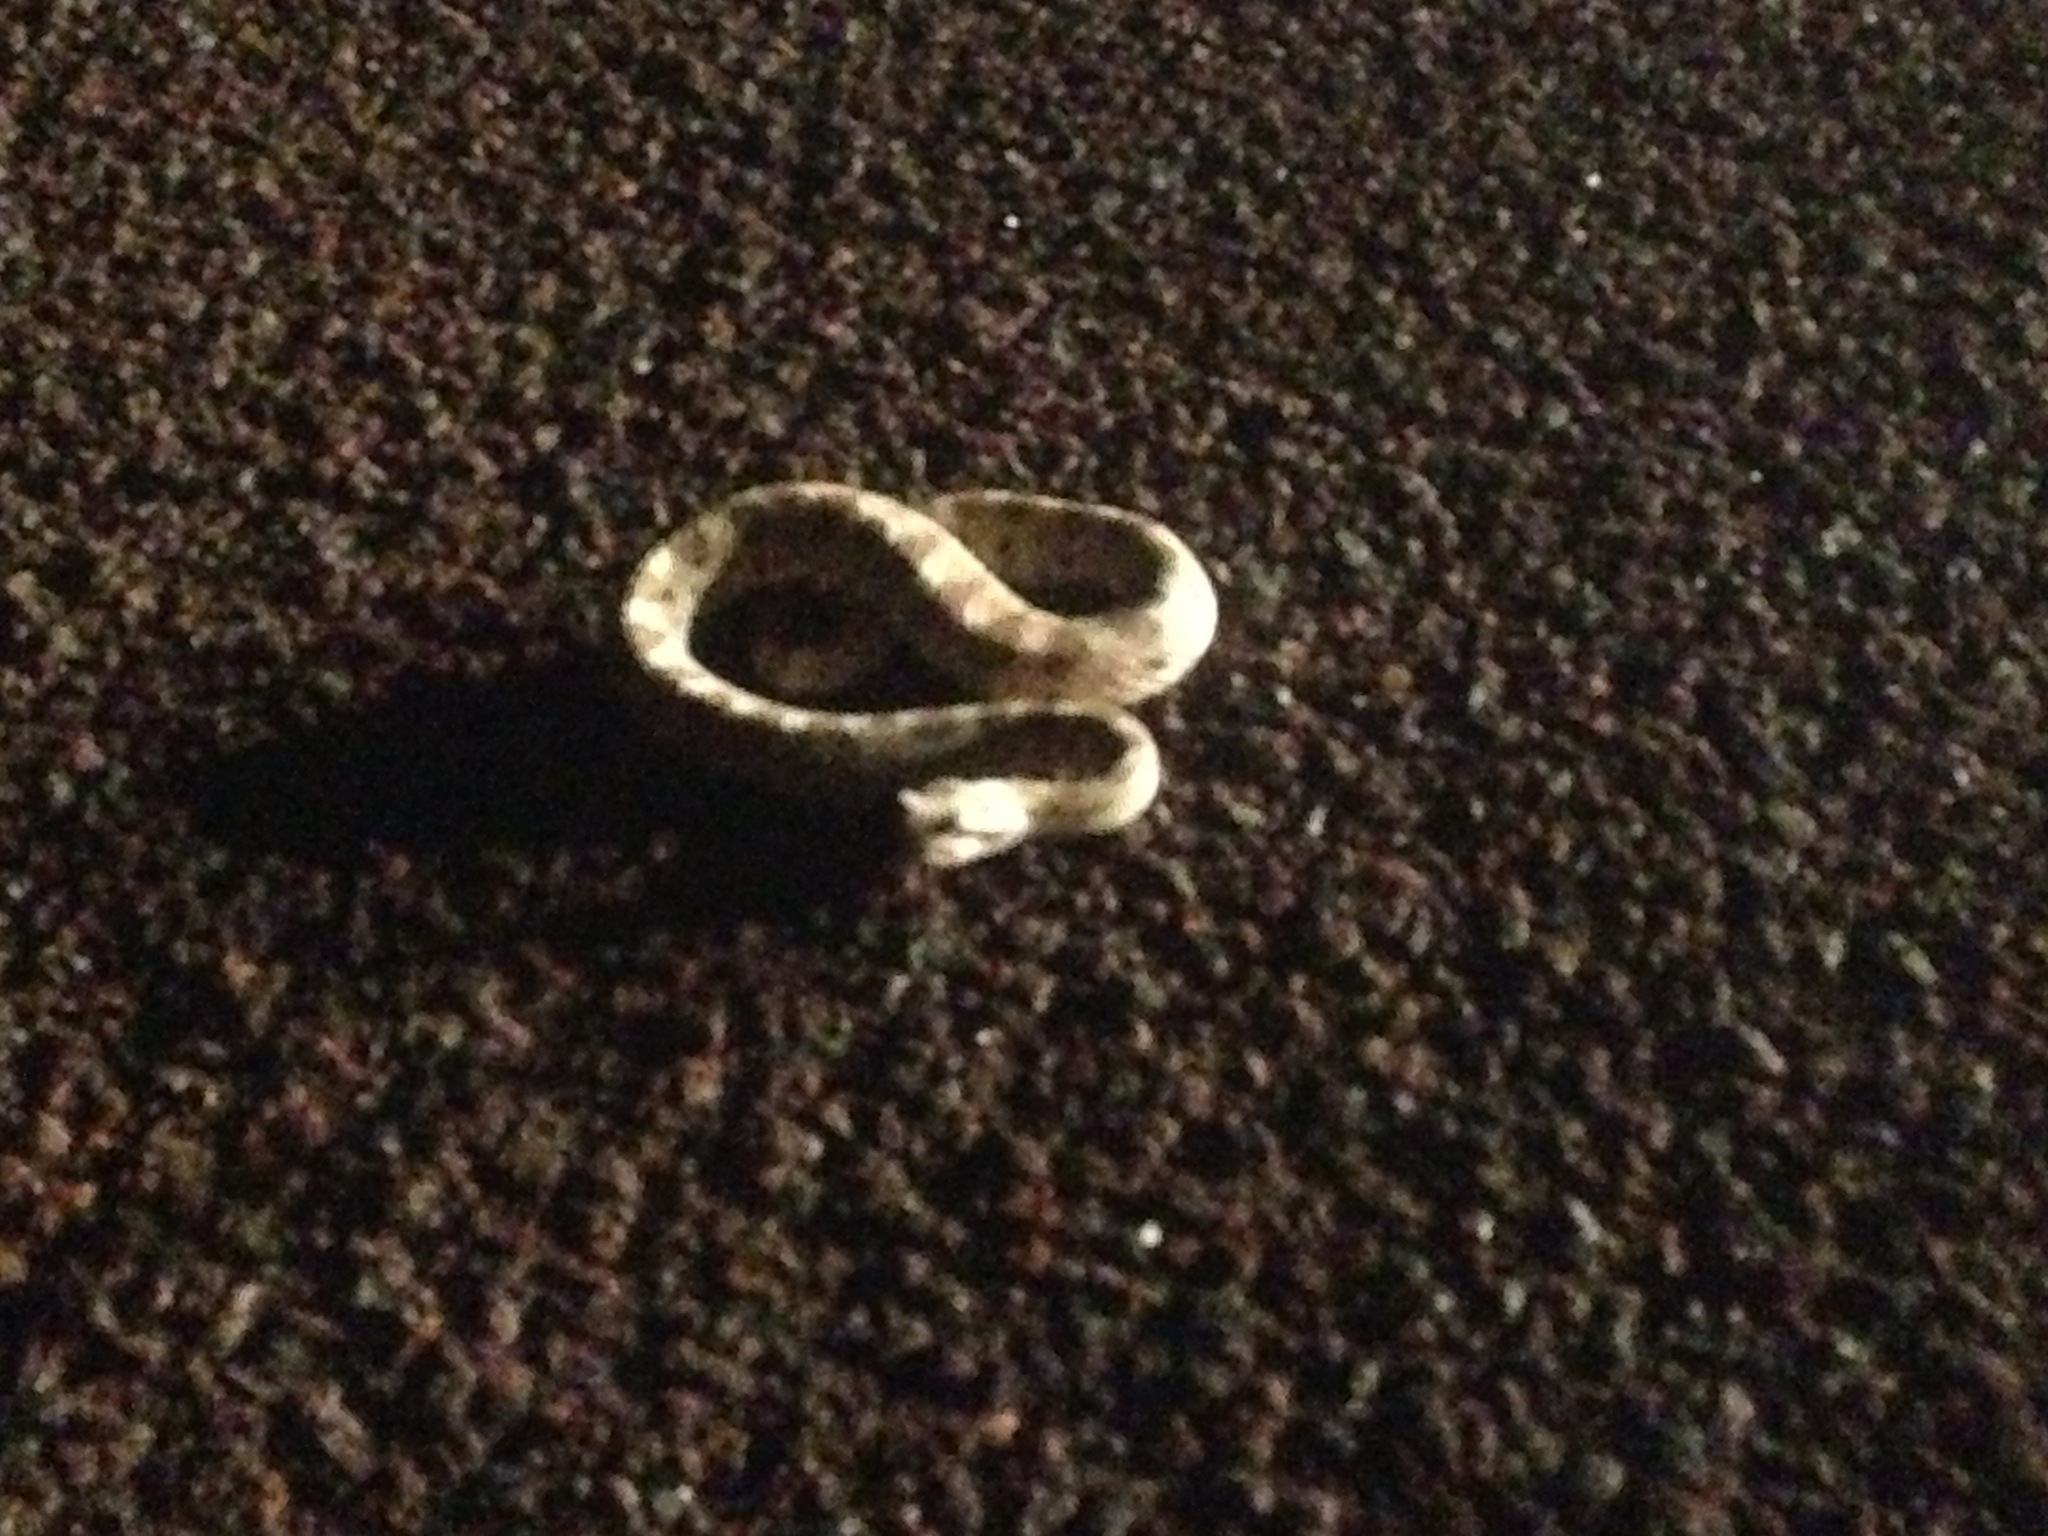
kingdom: Animalia
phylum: Chordata
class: Squamata
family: Viperidae
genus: Crotalus
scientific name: Crotalus cerastes
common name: Sidewinder
